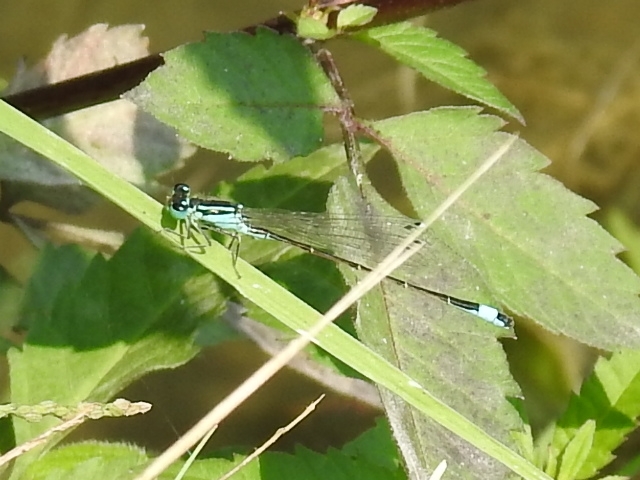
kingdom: Animalia
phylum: Arthropoda
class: Insecta
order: Odonata
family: Coenagrionidae
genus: Ischnura
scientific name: Ischnura elegans
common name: Blue-tailed damselfly
